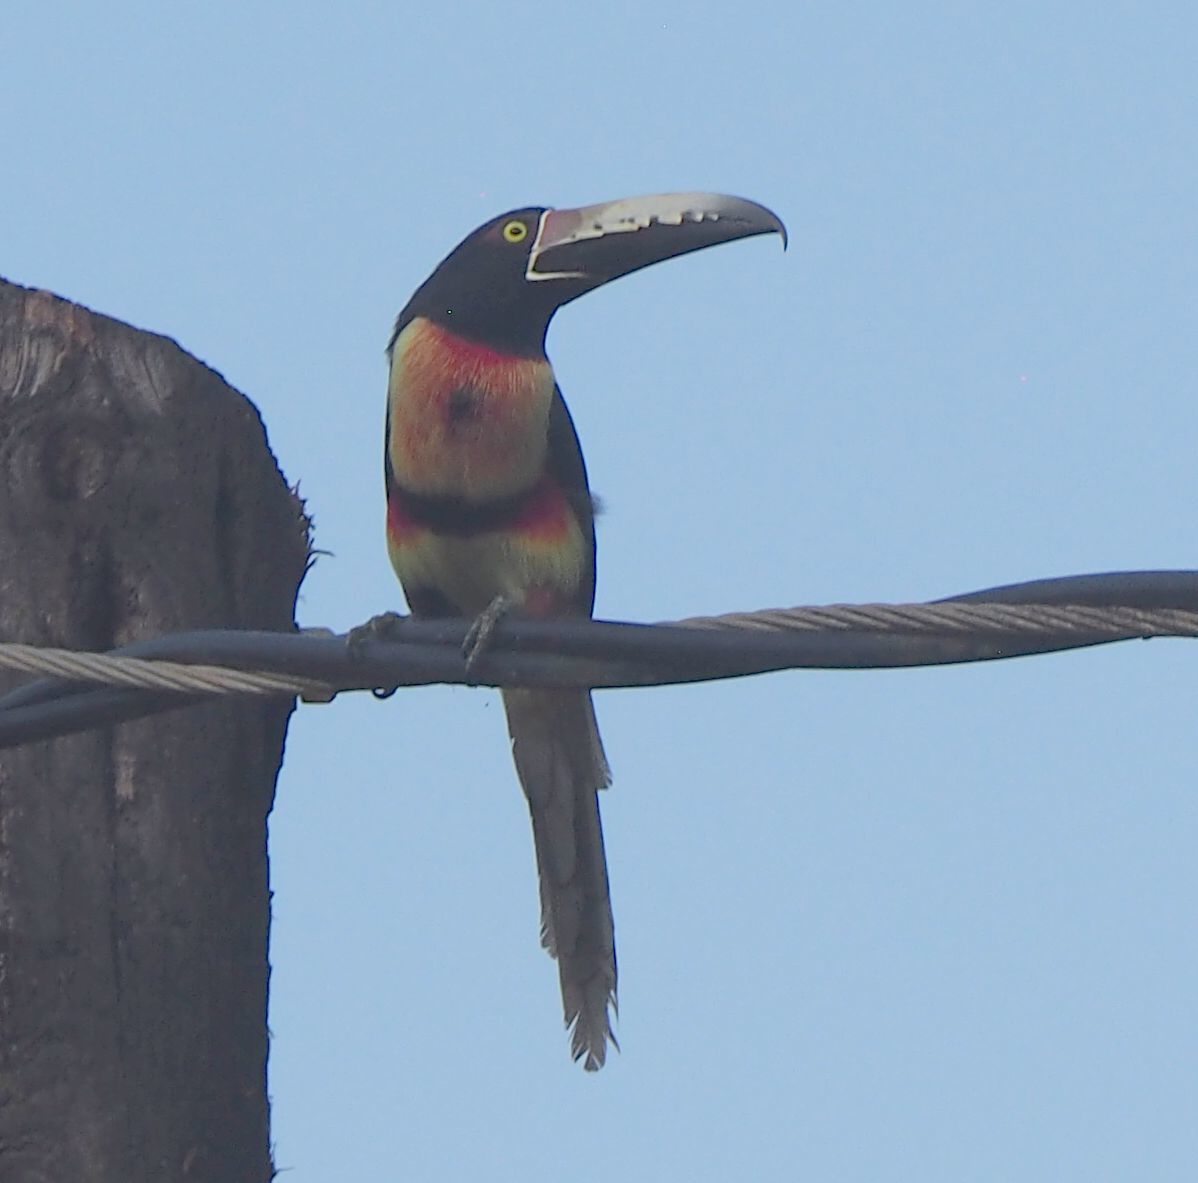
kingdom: Animalia
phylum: Chordata
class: Aves
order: Piciformes
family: Ramphastidae
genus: Pteroglossus
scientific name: Pteroglossus torquatus
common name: Collared aracari
